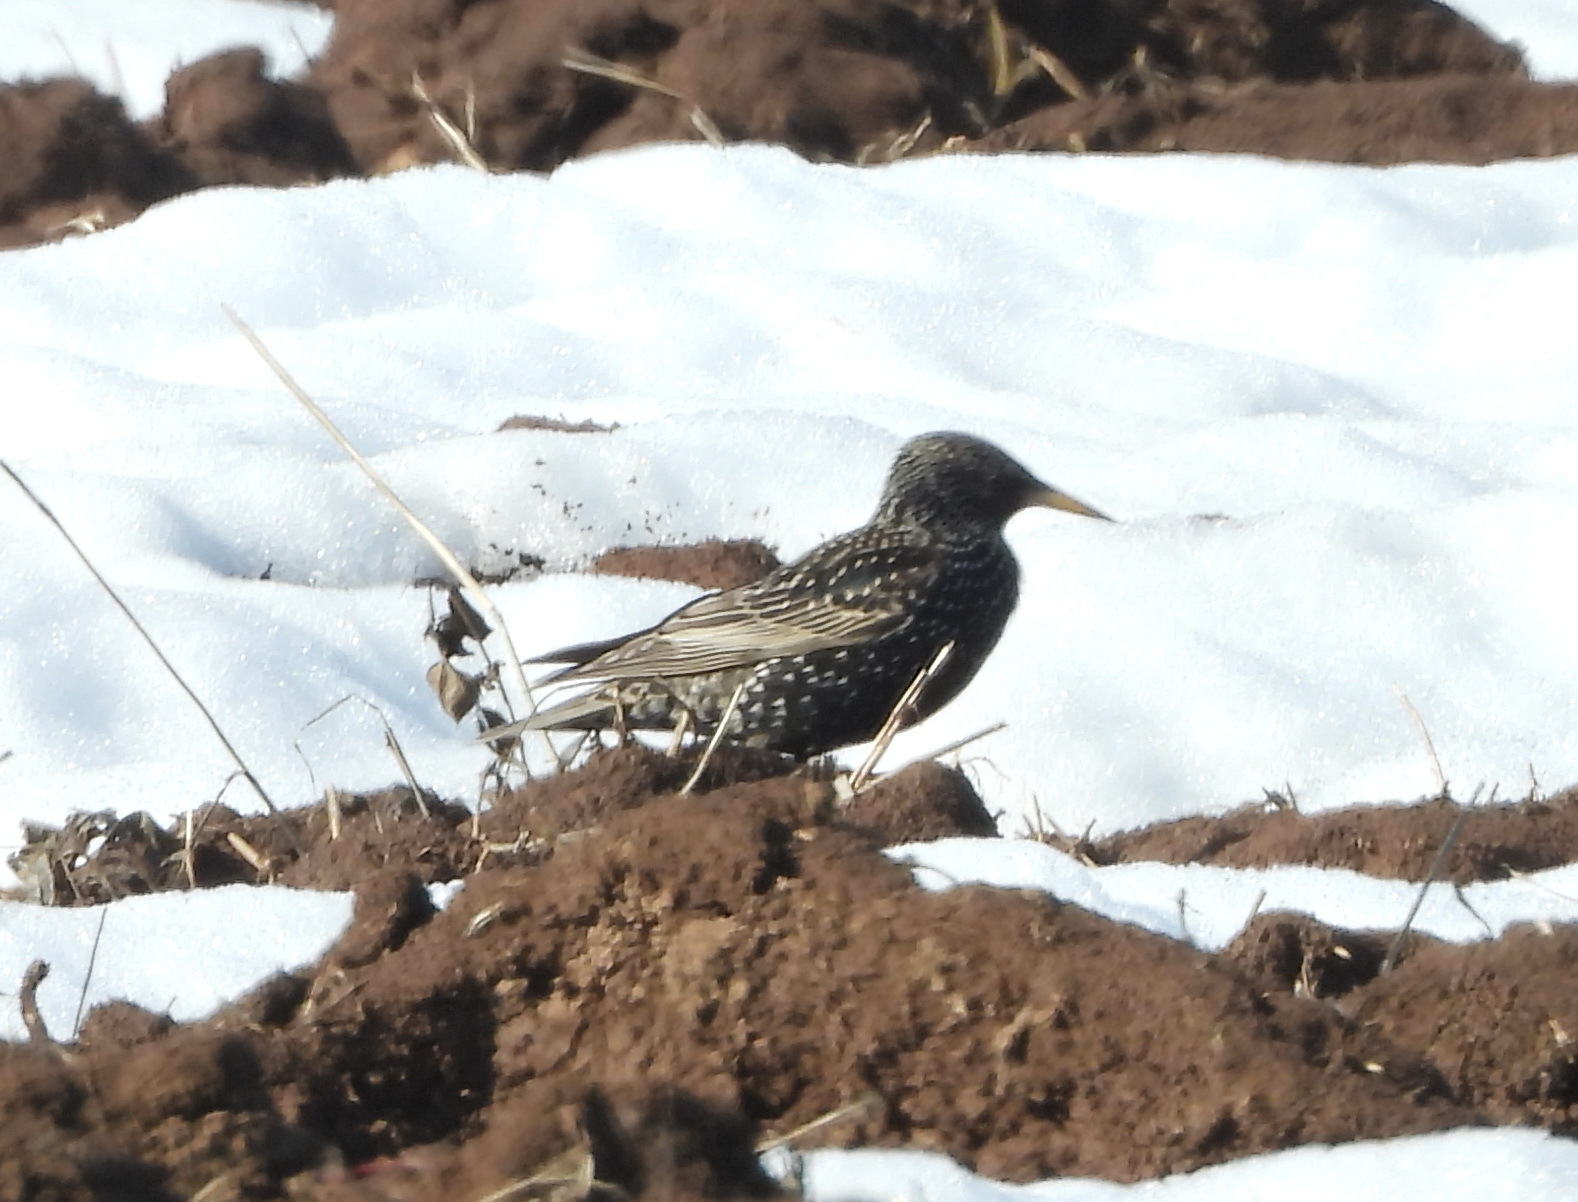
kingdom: Animalia
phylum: Chordata
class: Aves
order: Passeriformes
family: Sturnidae
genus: Sturnus
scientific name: Sturnus vulgaris
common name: Common starling
